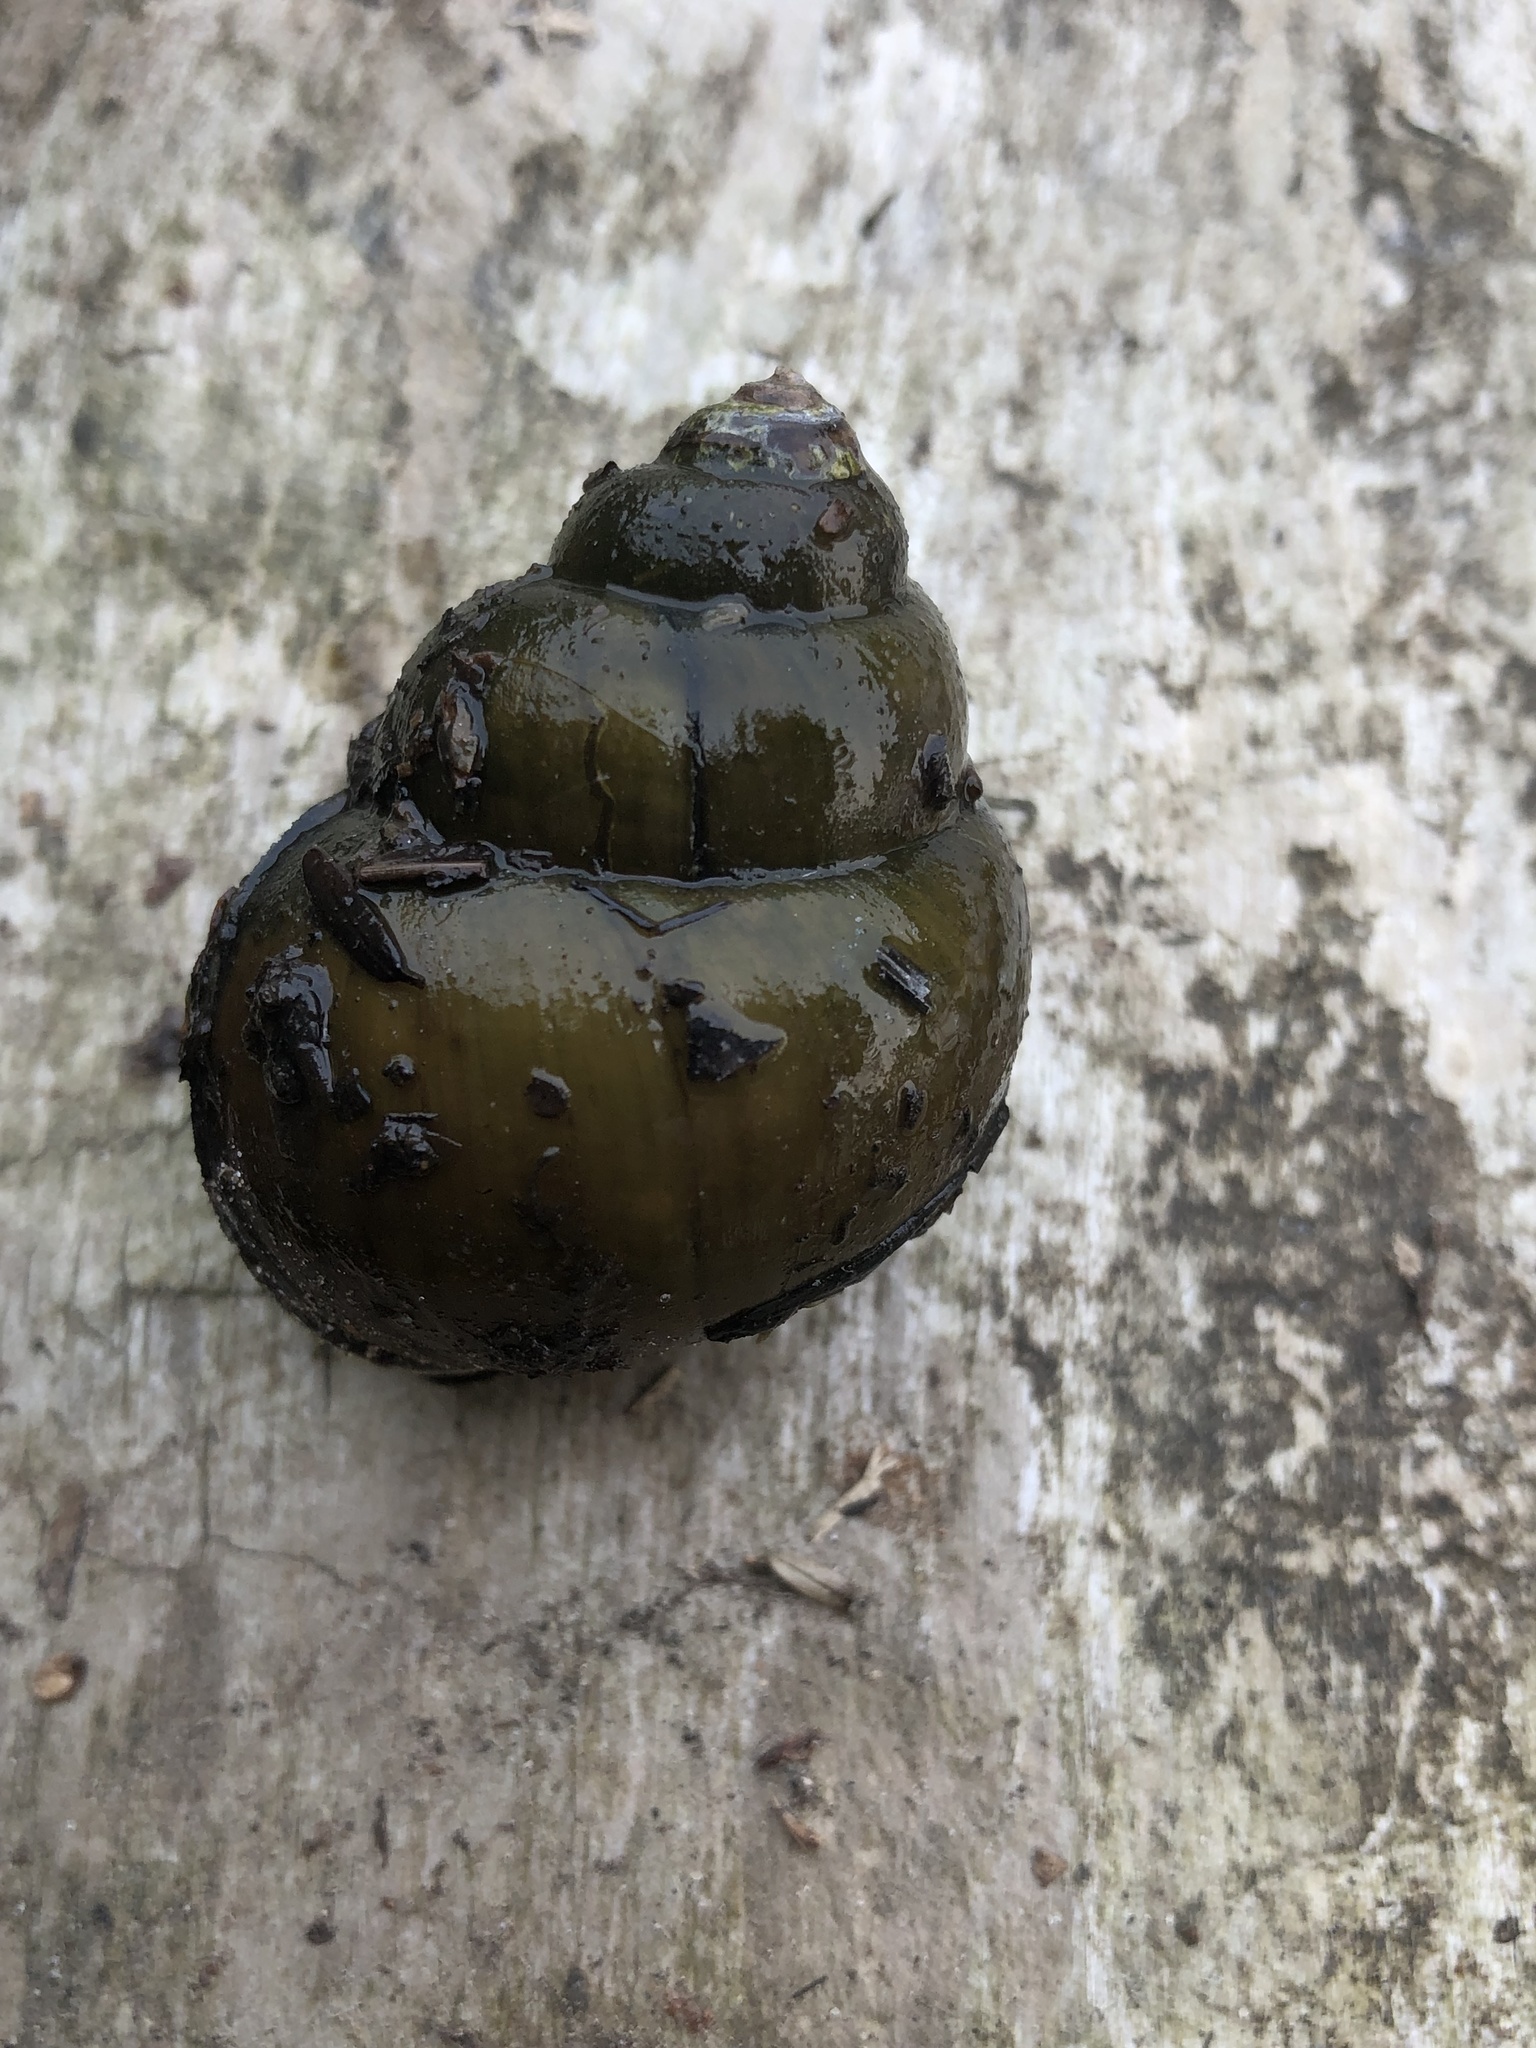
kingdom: Animalia
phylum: Mollusca
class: Gastropoda
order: Architaenioglossa
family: Viviparidae
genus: Cipangopaludina
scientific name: Cipangopaludina chinensis
